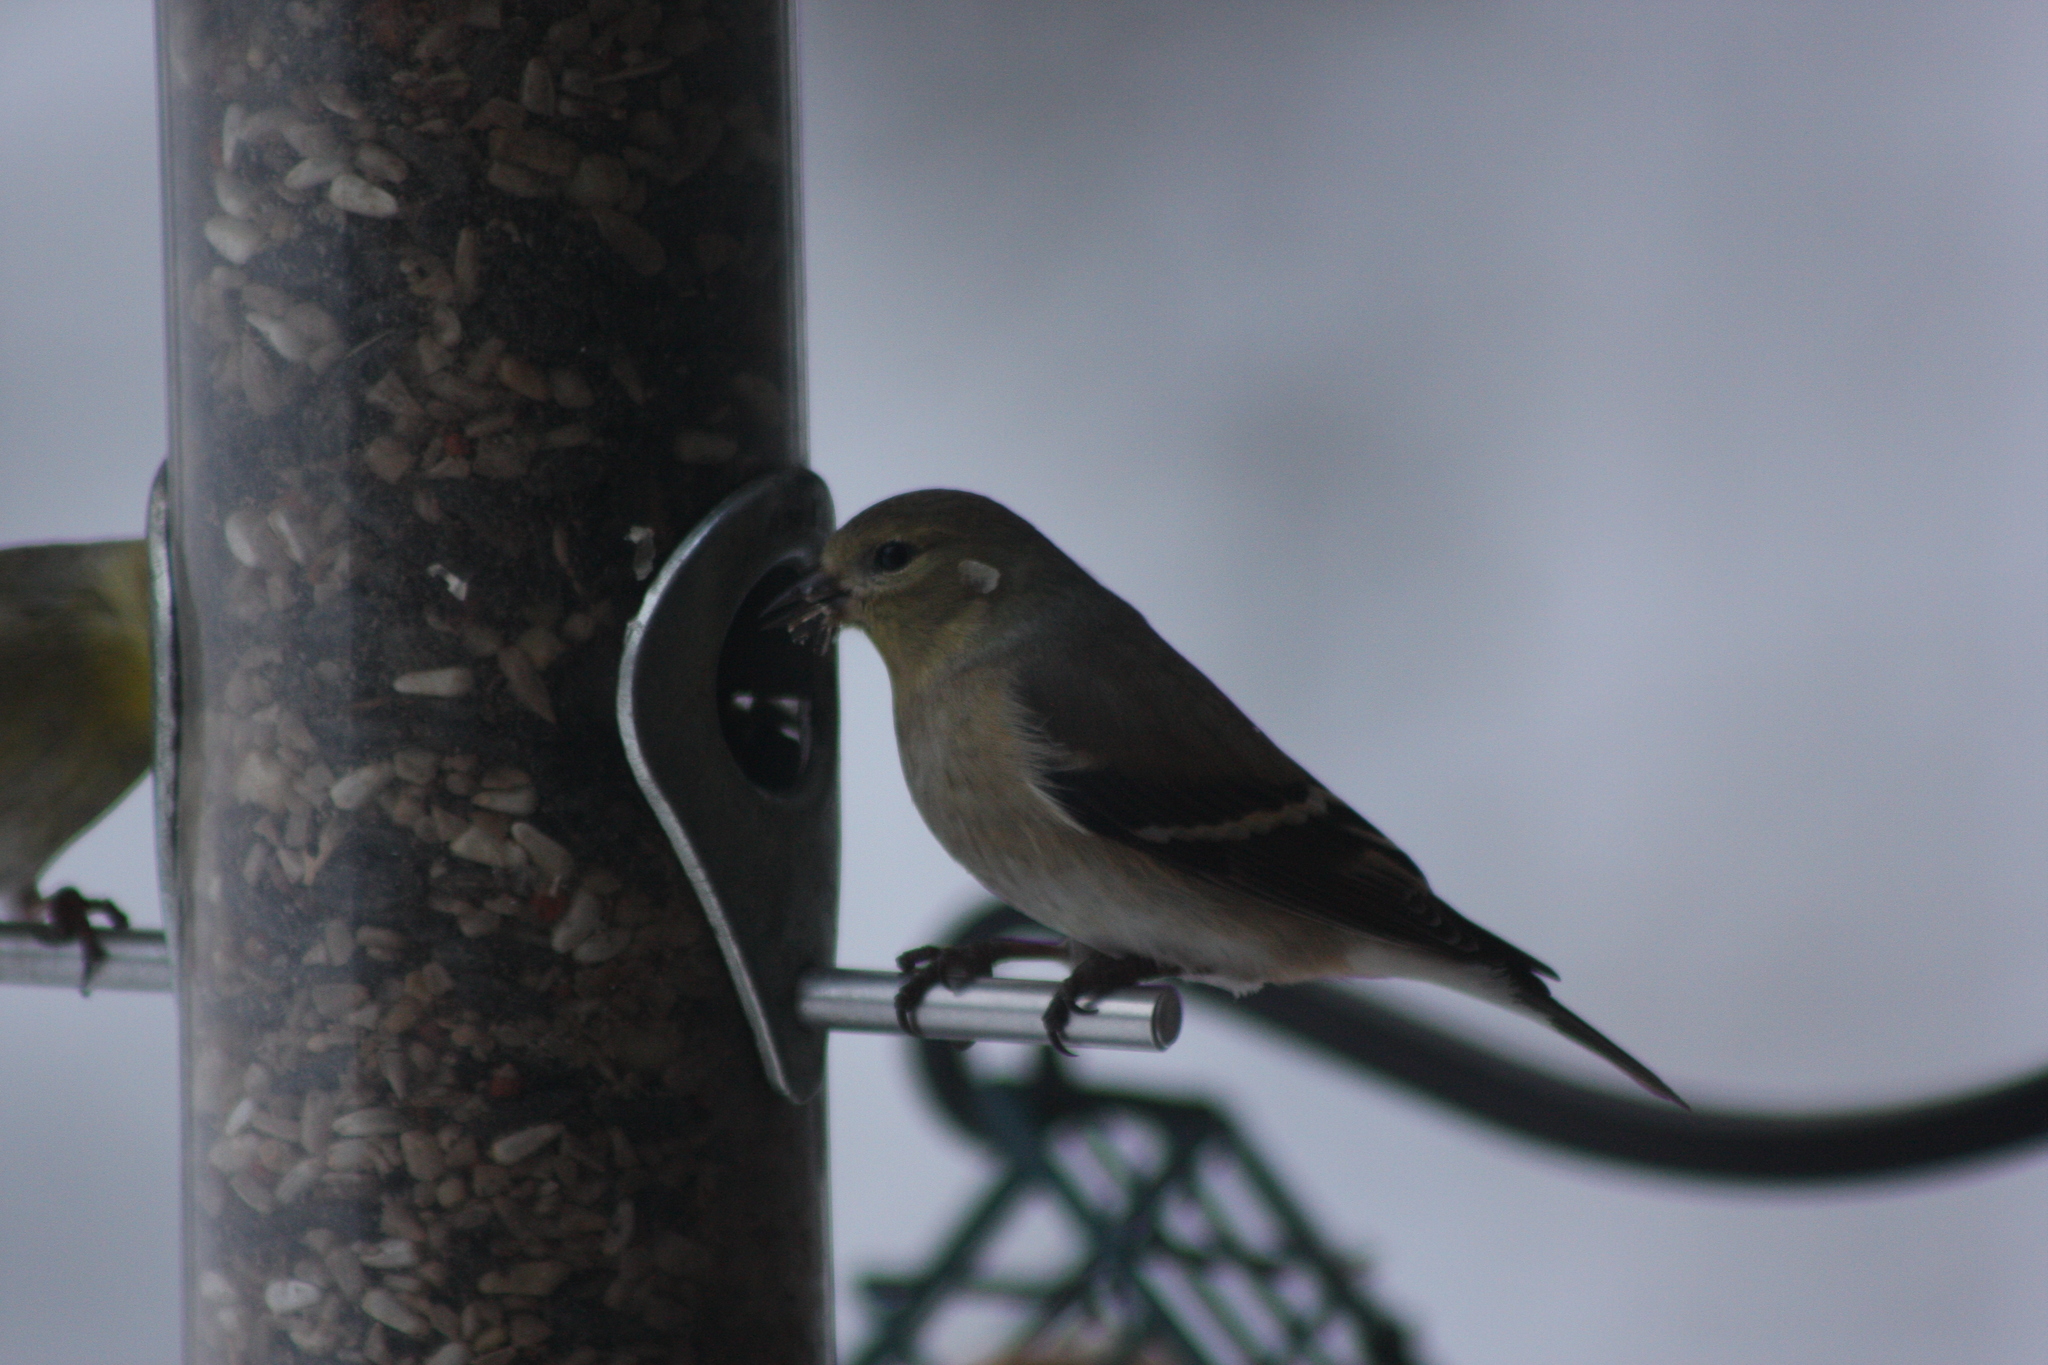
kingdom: Animalia
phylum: Chordata
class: Aves
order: Passeriformes
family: Fringillidae
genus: Spinus
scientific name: Spinus tristis
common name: American goldfinch
